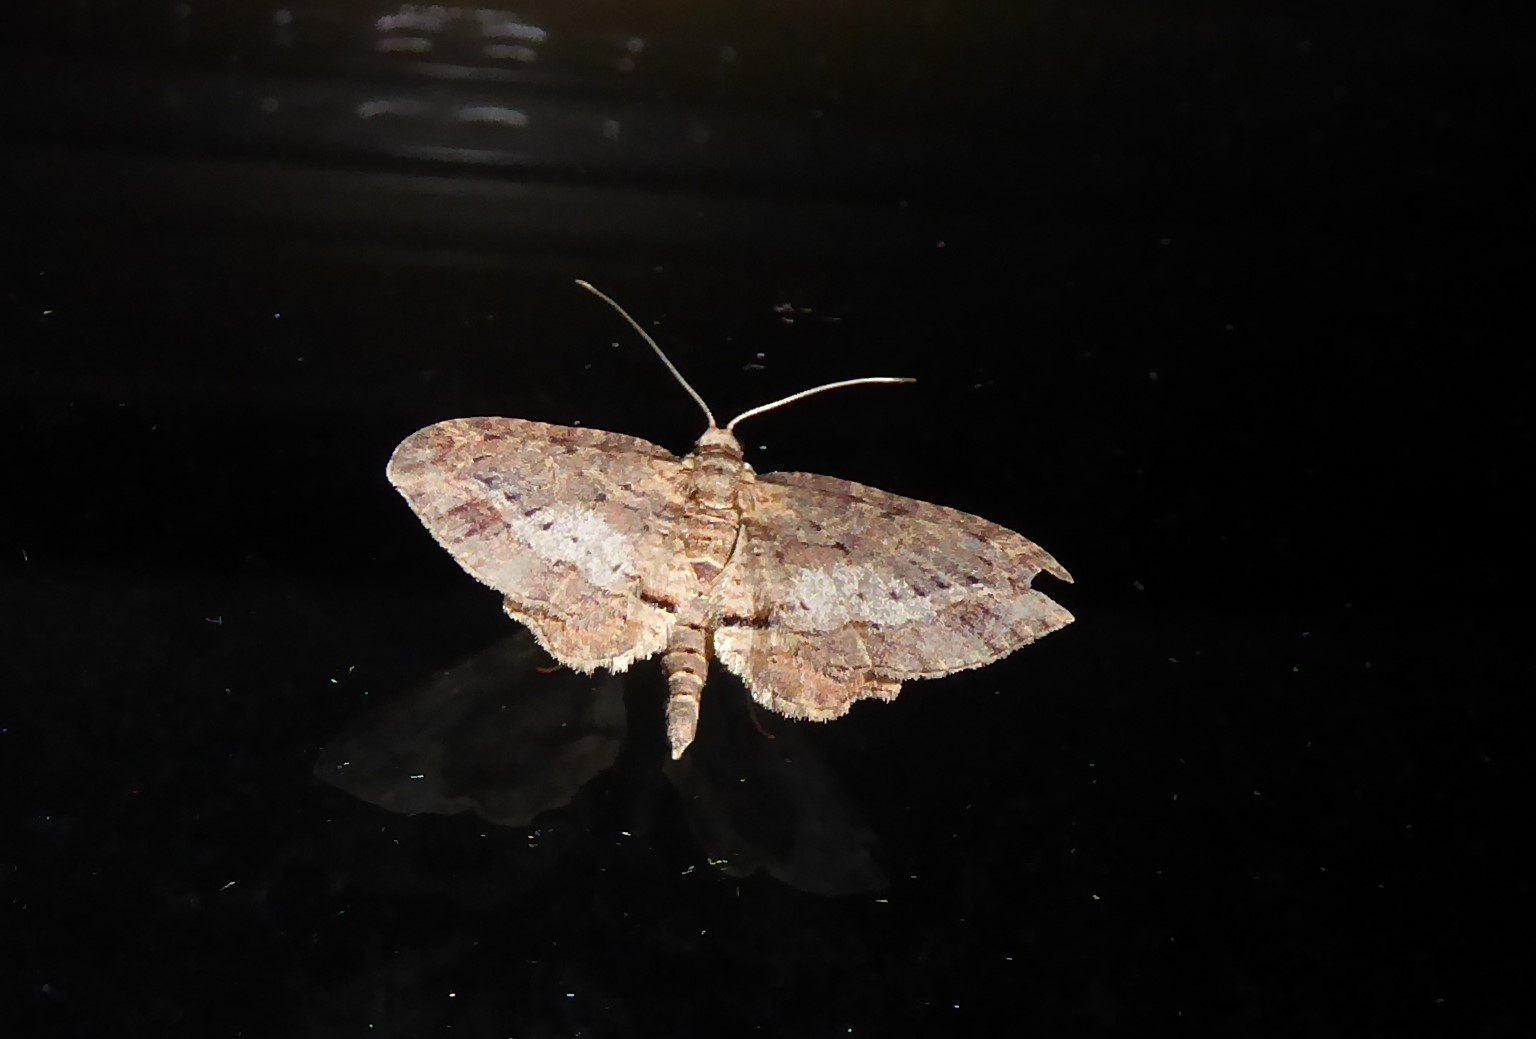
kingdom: Animalia
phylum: Arthropoda
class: Insecta
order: Lepidoptera
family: Geometridae
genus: Chloroclystis
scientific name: Chloroclystis filata
